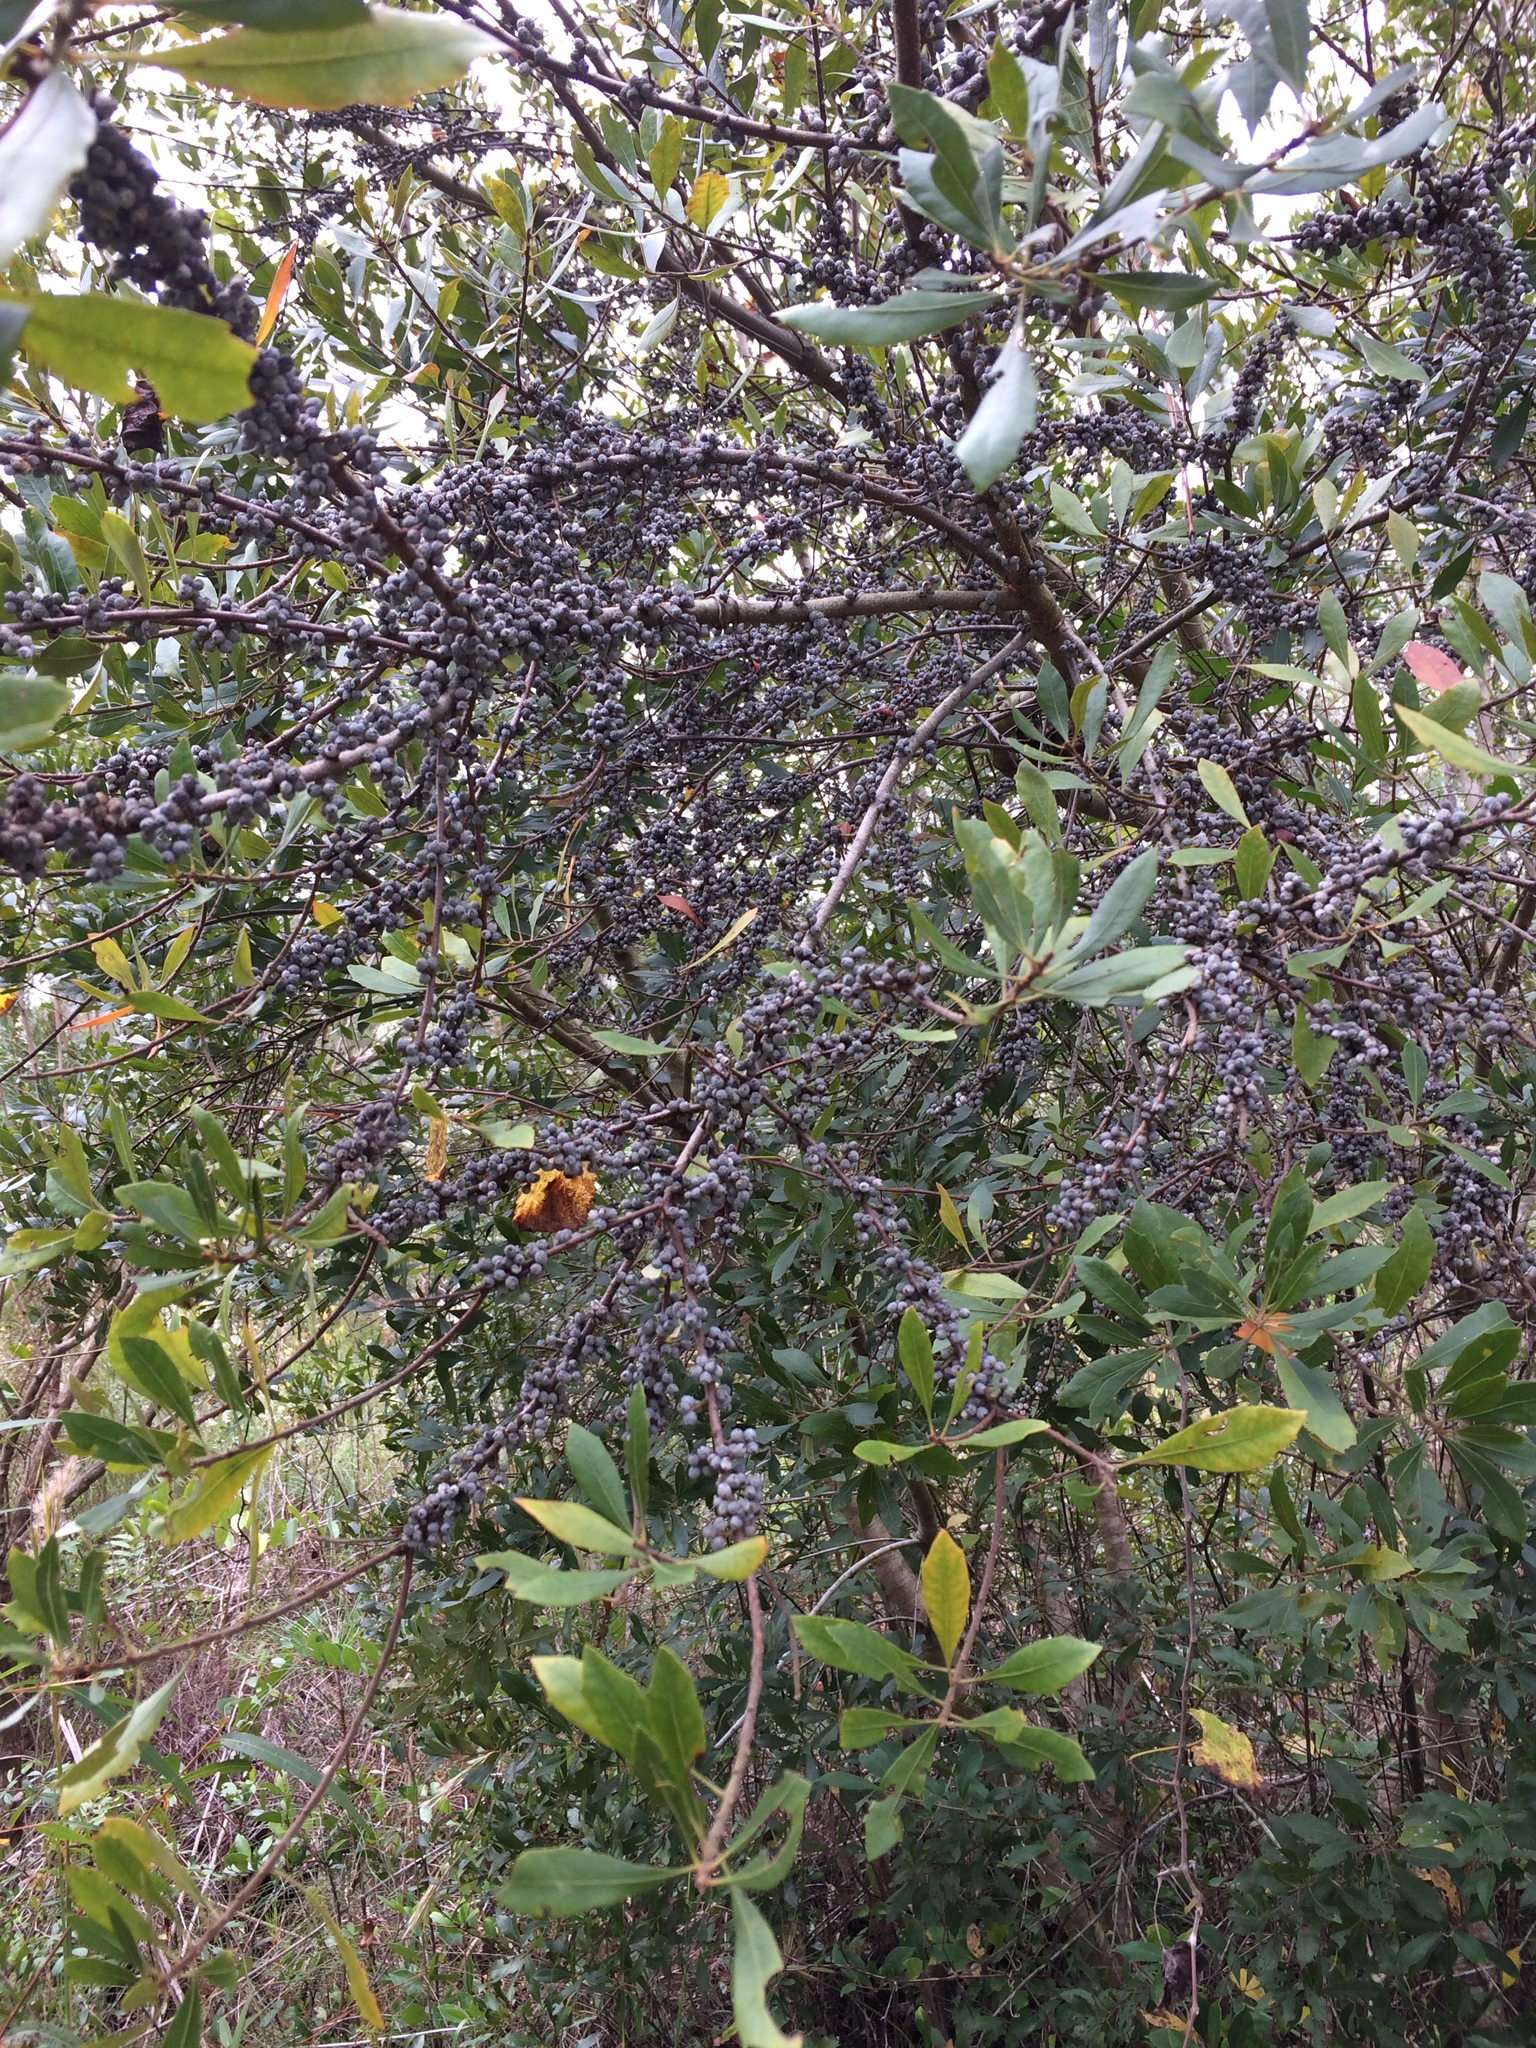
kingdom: Plantae
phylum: Tracheophyta
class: Magnoliopsida
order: Fagales
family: Myricaceae
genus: Morella
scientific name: Morella cerifera
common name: Wax myrtle
